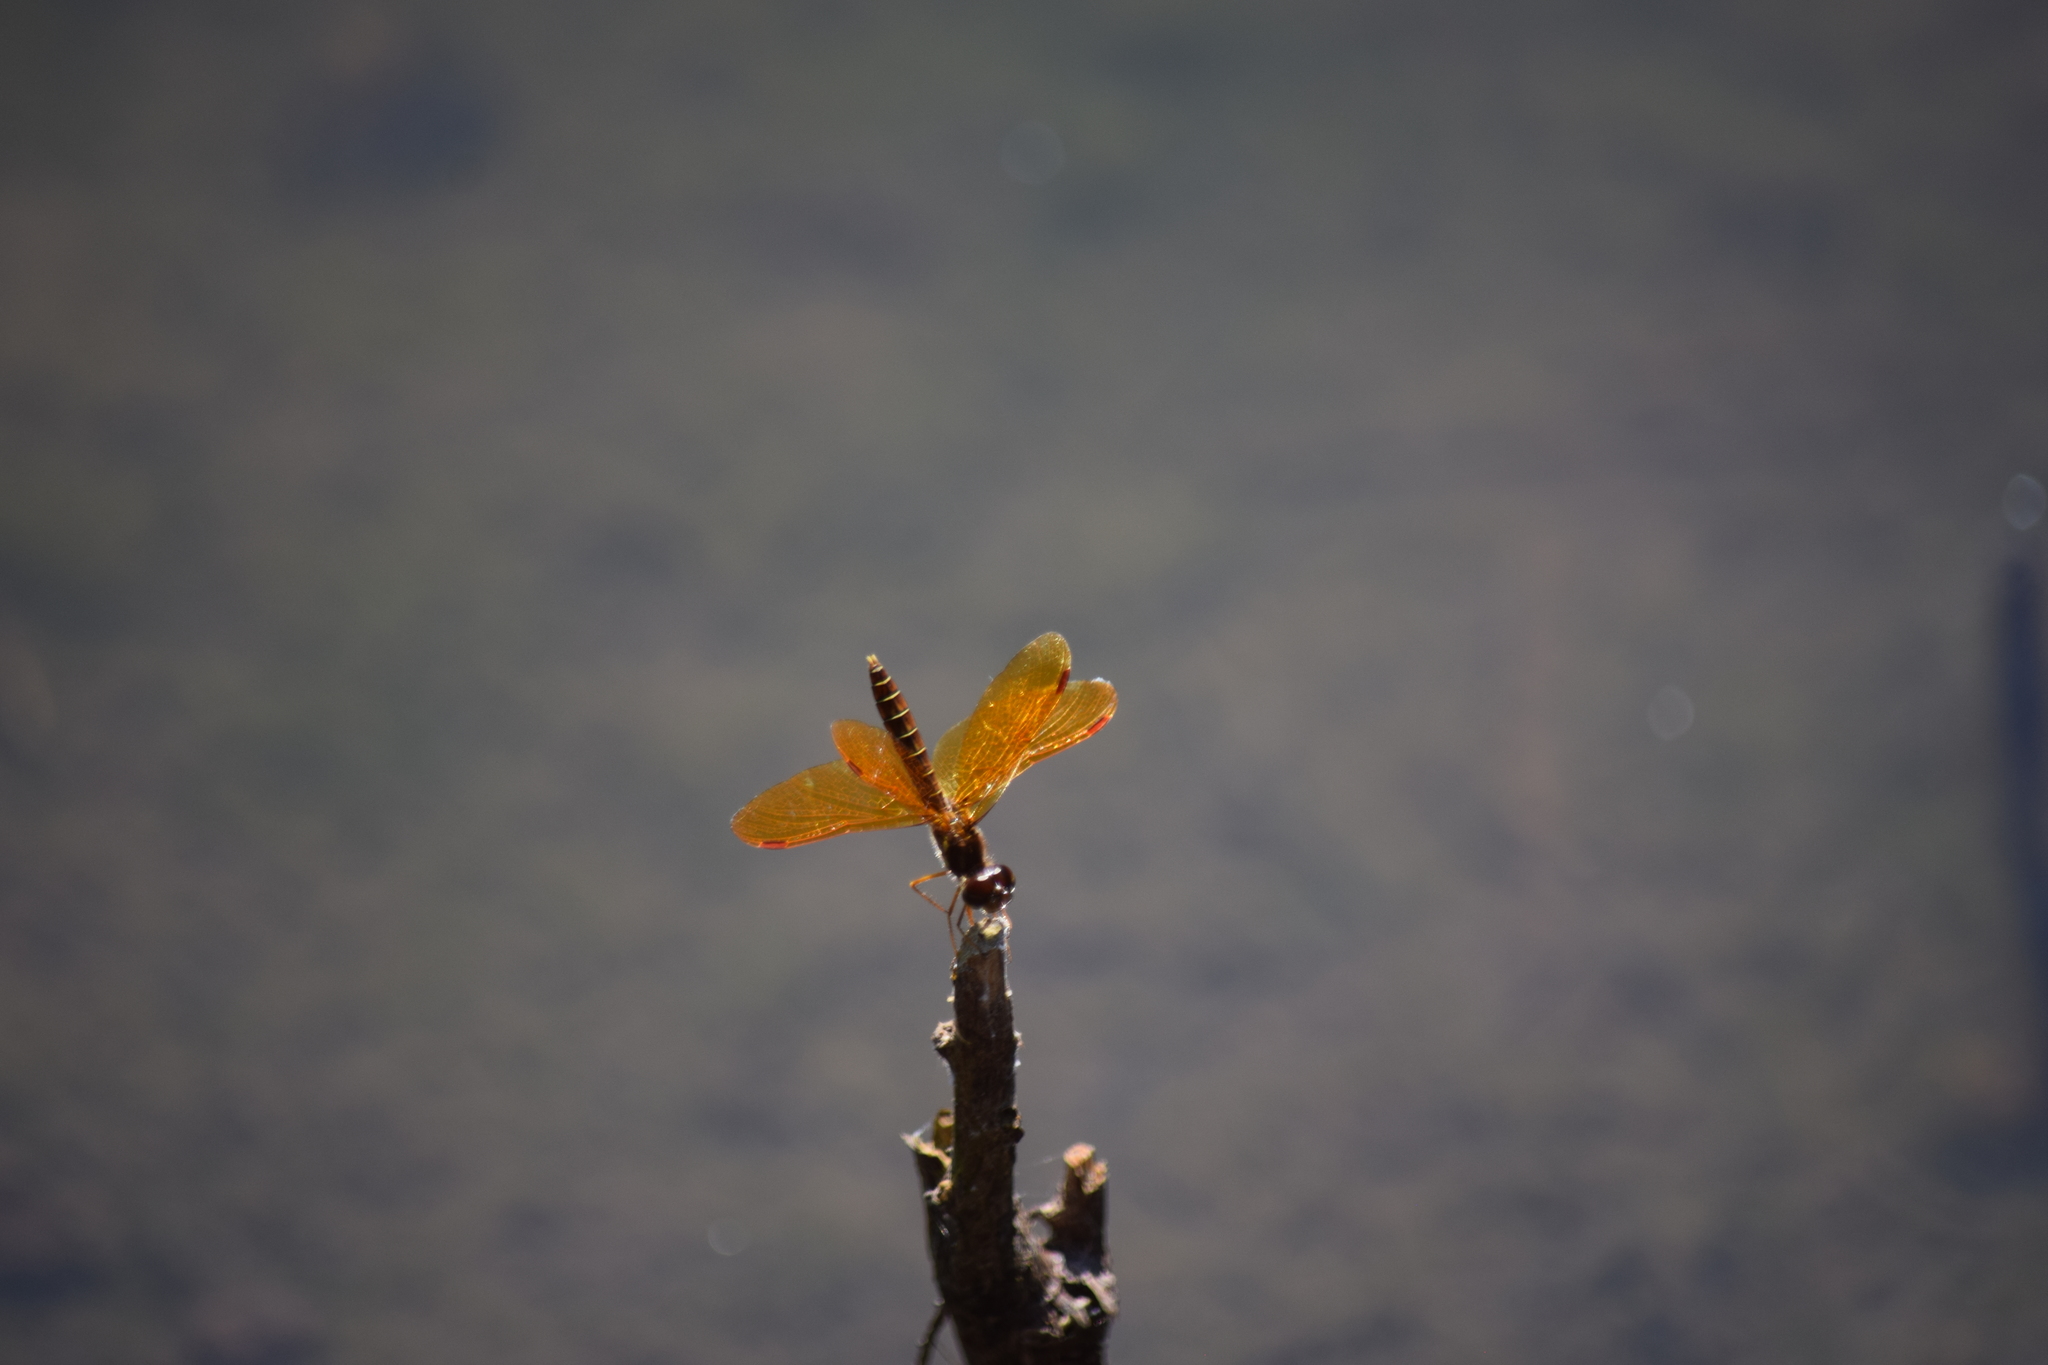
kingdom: Animalia
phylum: Arthropoda
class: Insecta
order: Odonata
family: Libellulidae
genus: Perithemis
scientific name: Perithemis tenera
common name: Eastern amberwing
